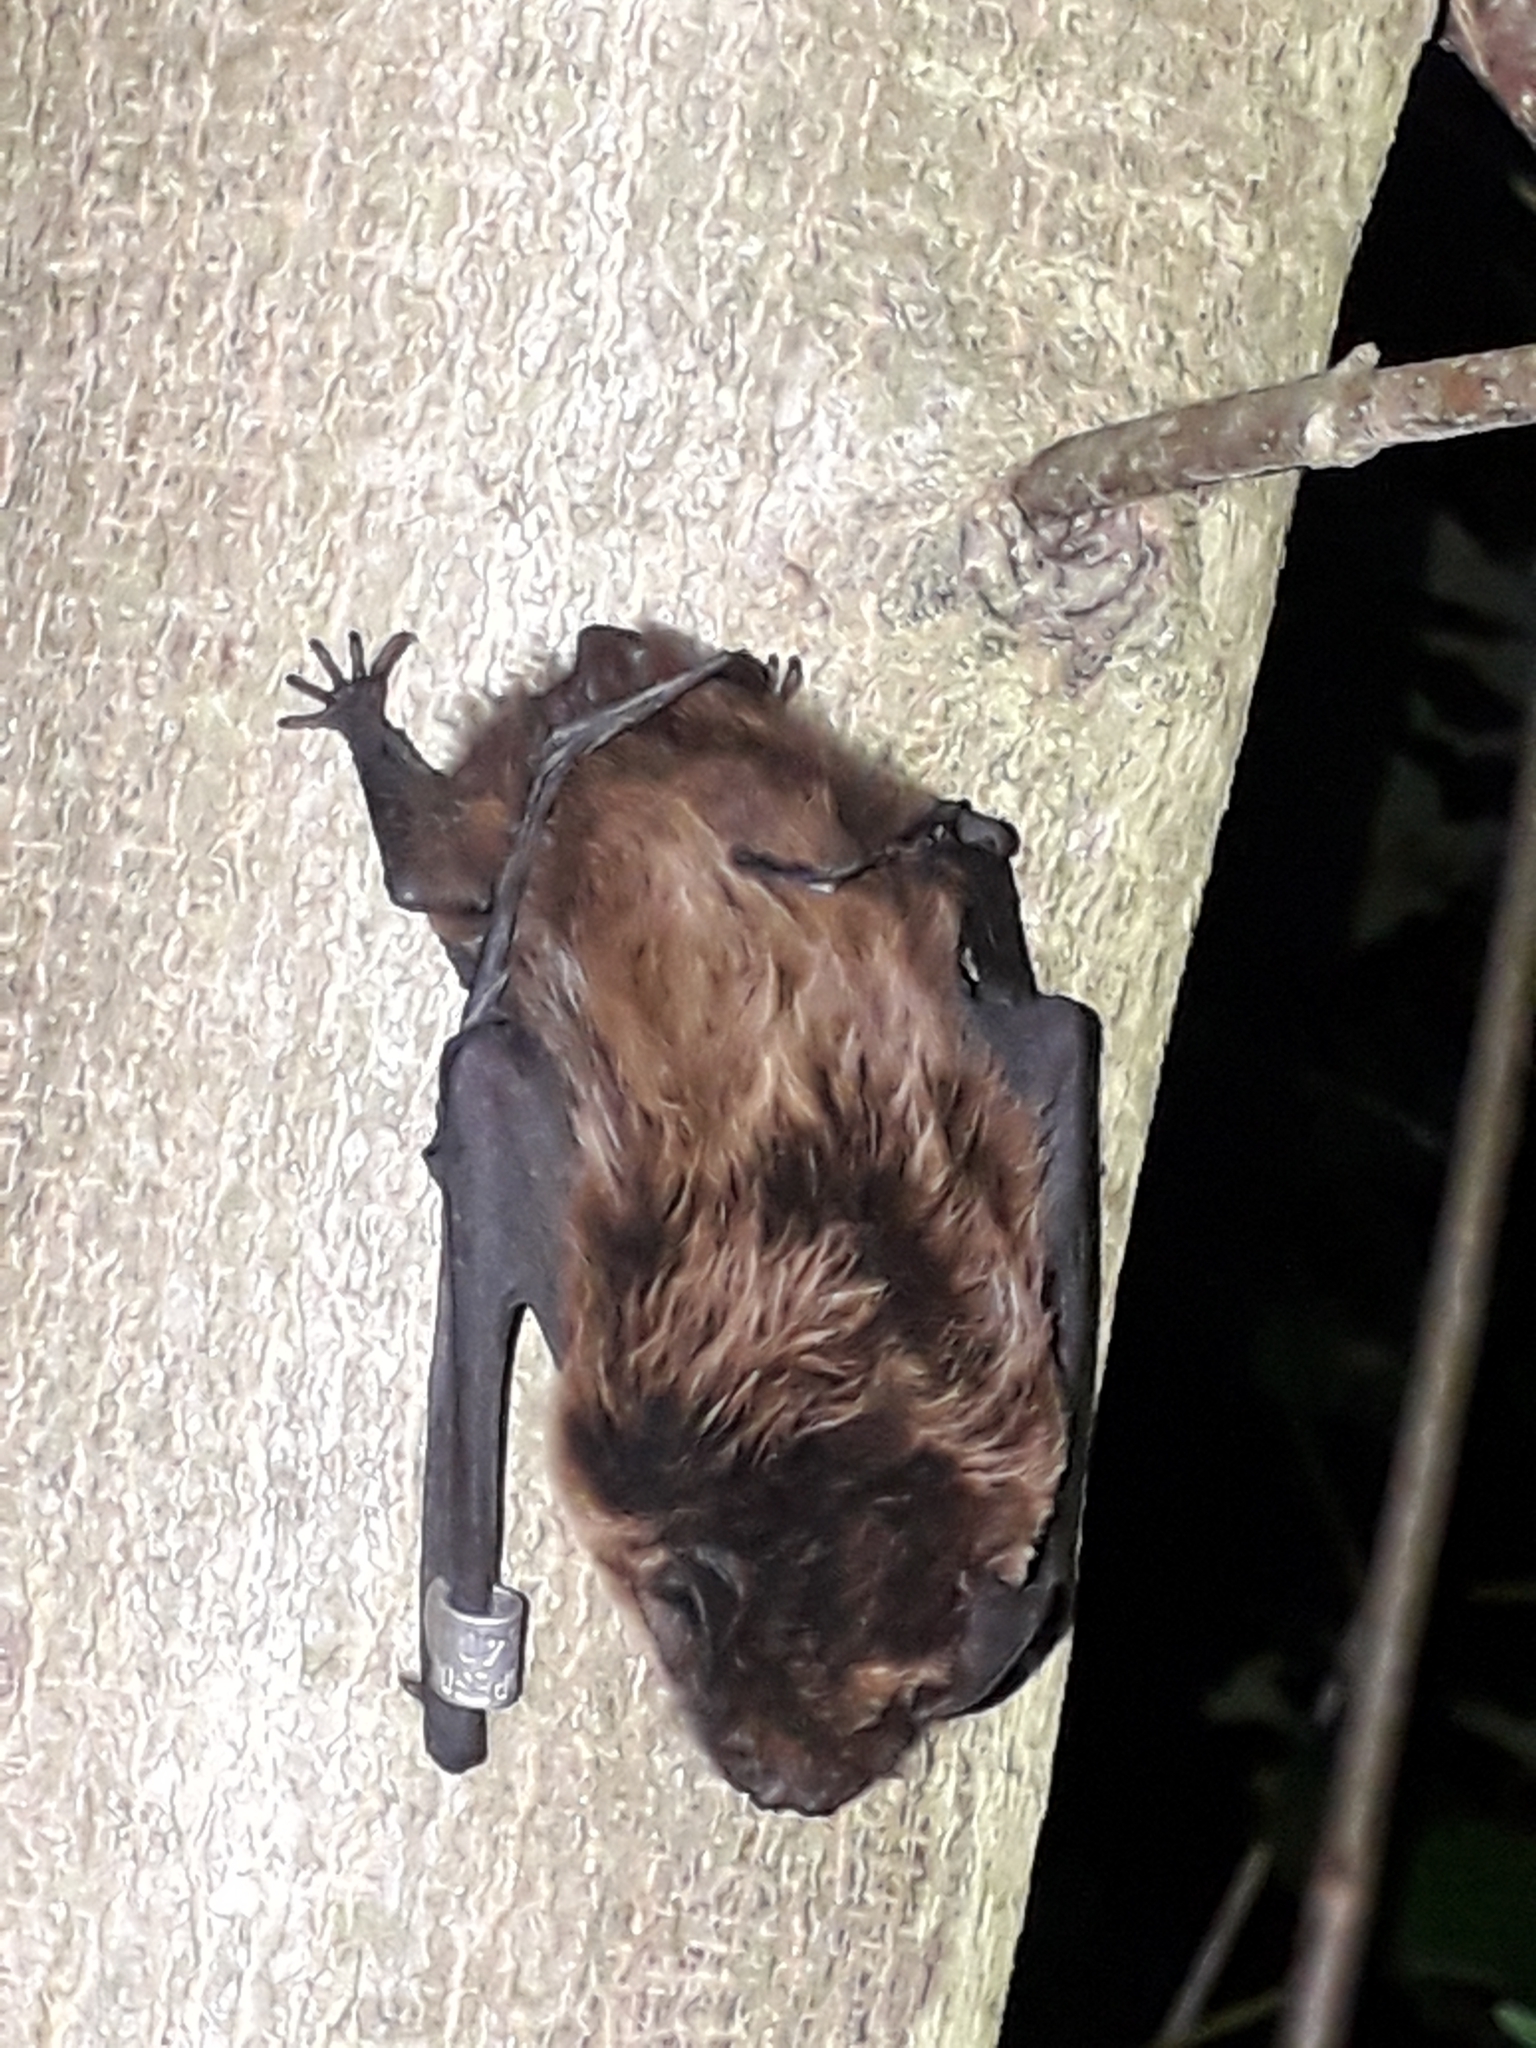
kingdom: Animalia
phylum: Chordata
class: Mammalia
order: Chiroptera
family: Vespertilionidae
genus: Nyctalus
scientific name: Nyctalus leisleri
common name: Lesser noctule
